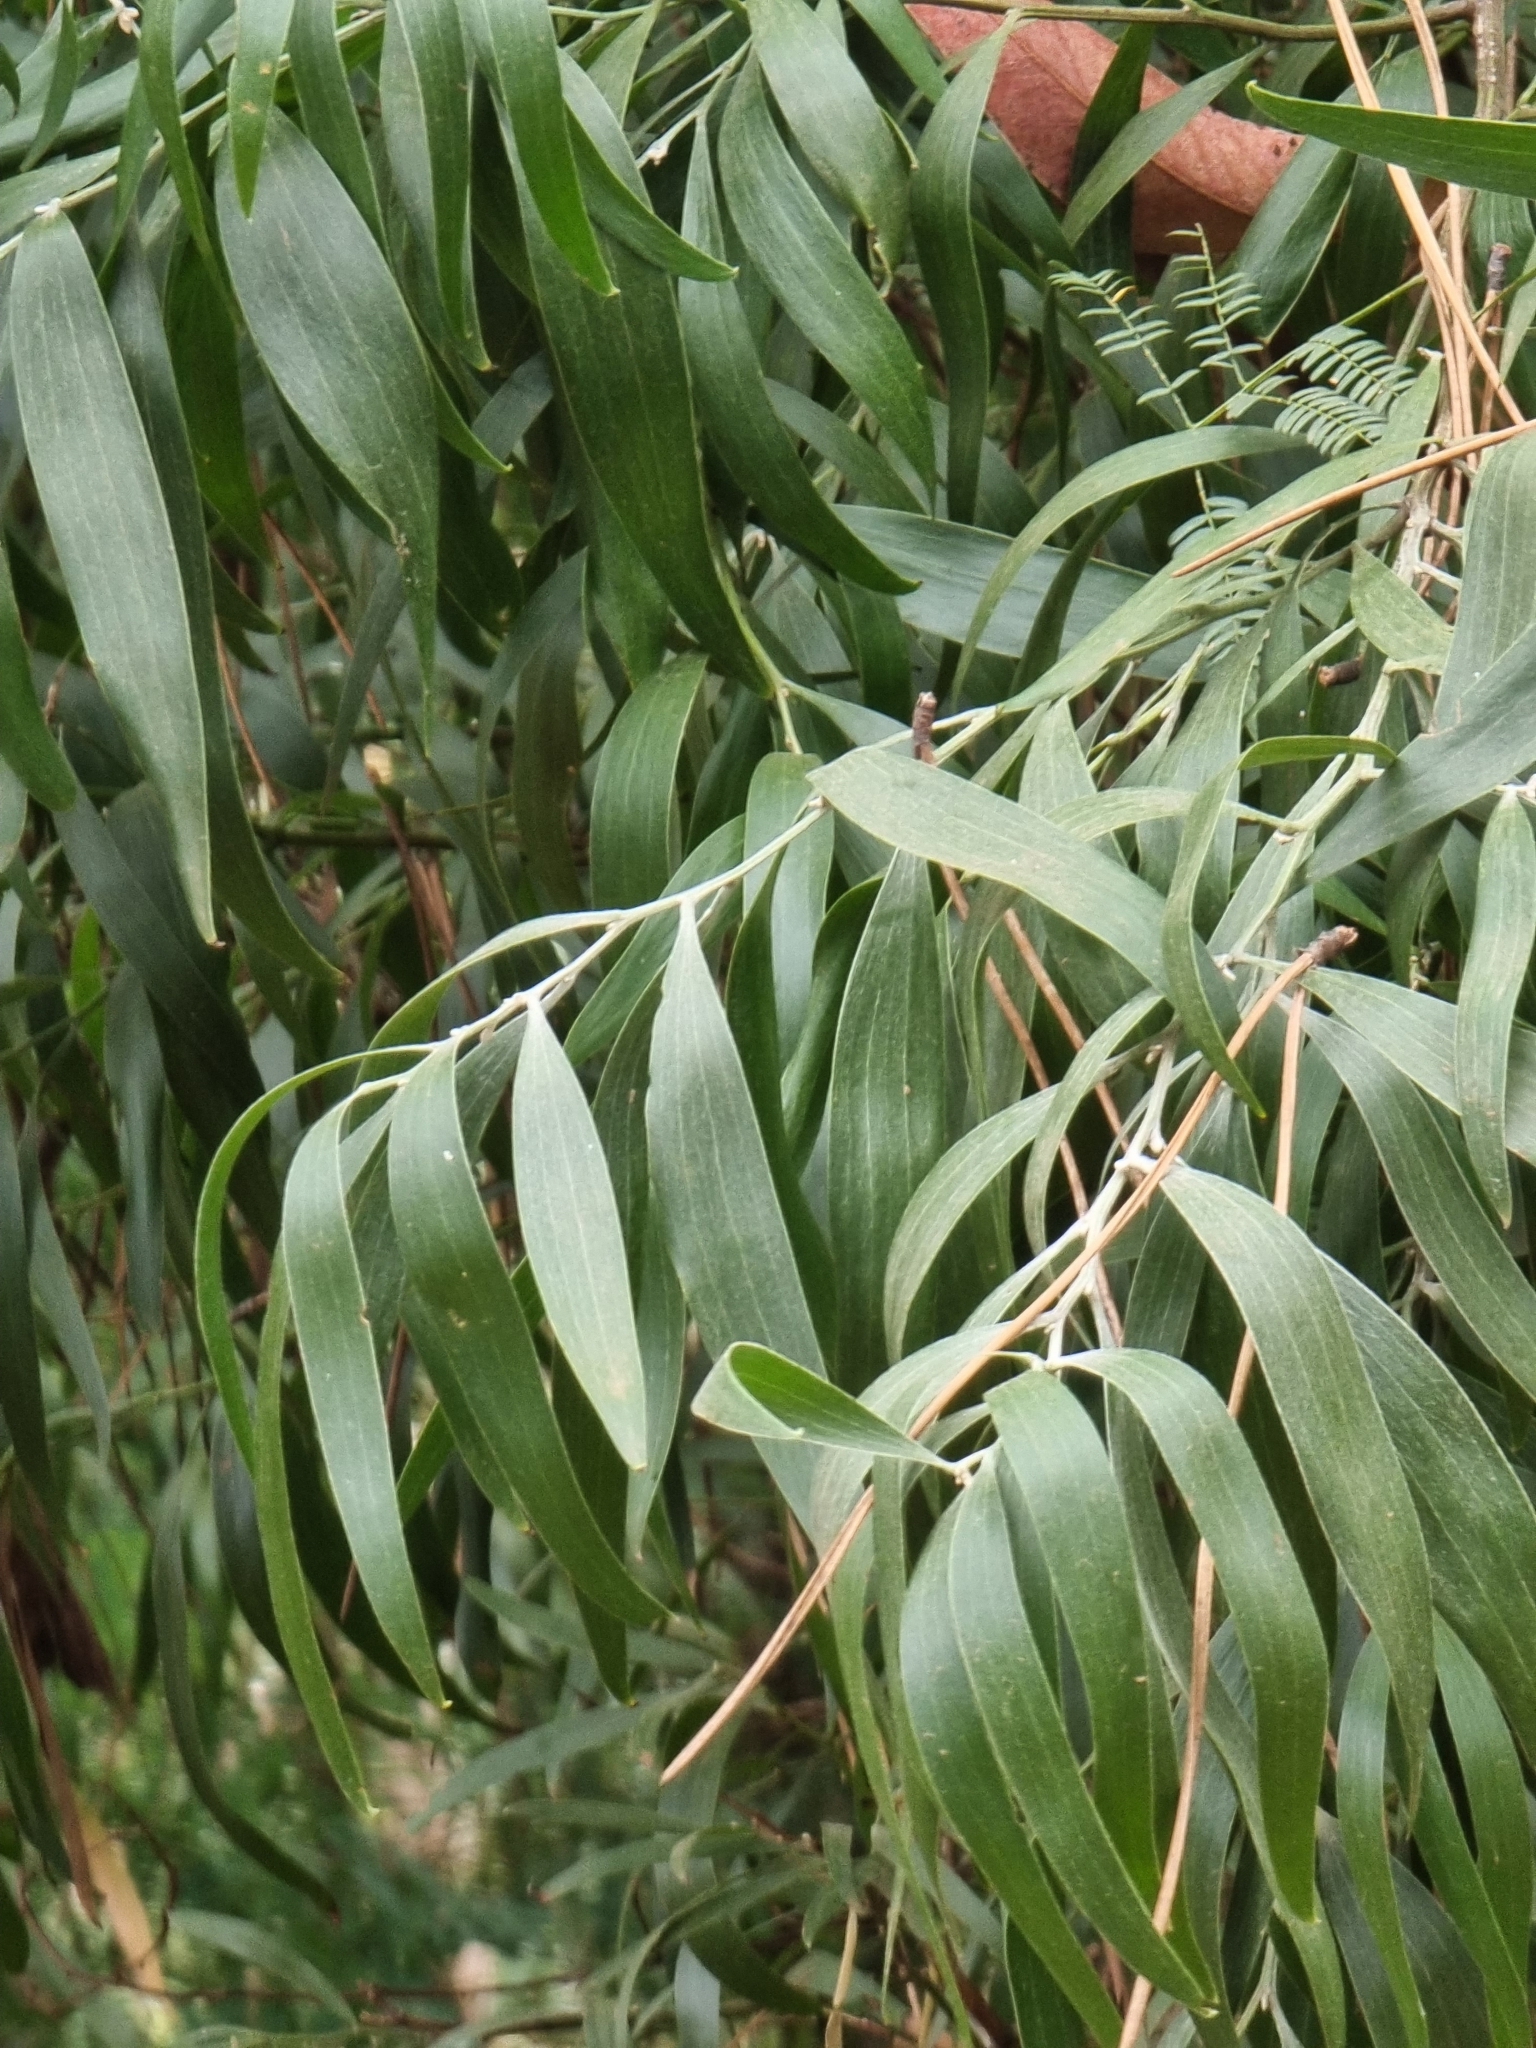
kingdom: Plantae
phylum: Tracheophyta
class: Magnoliopsida
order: Fabales
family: Fabaceae
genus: Acacia
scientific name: Acacia melanoxylon
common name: Blackwood
